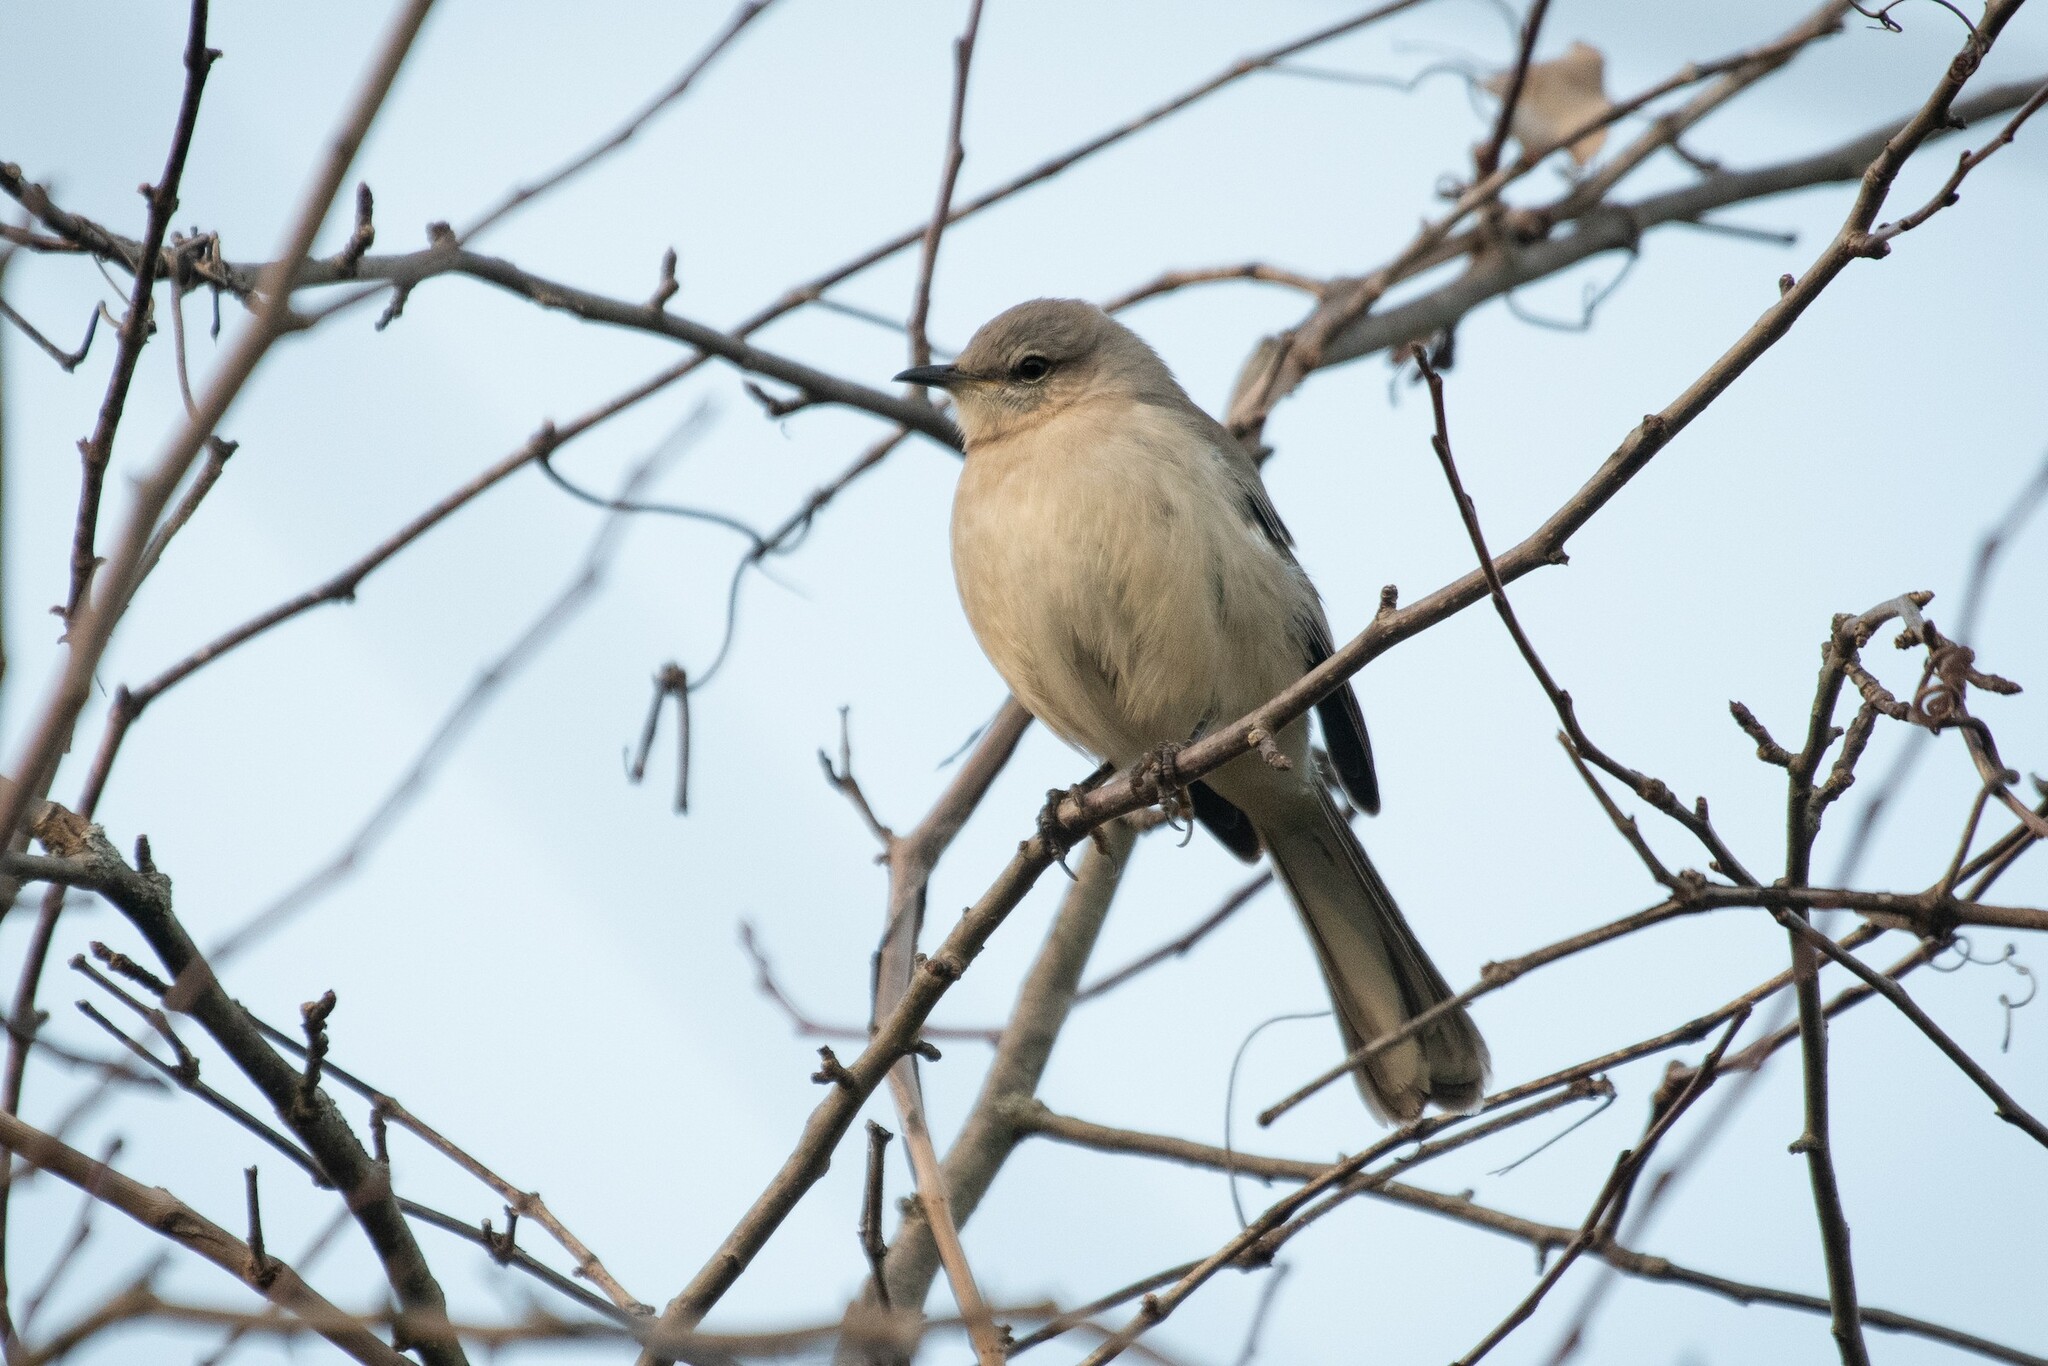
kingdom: Animalia
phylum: Chordata
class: Aves
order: Passeriformes
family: Mimidae
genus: Mimus
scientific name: Mimus polyglottos
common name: Northern mockingbird
